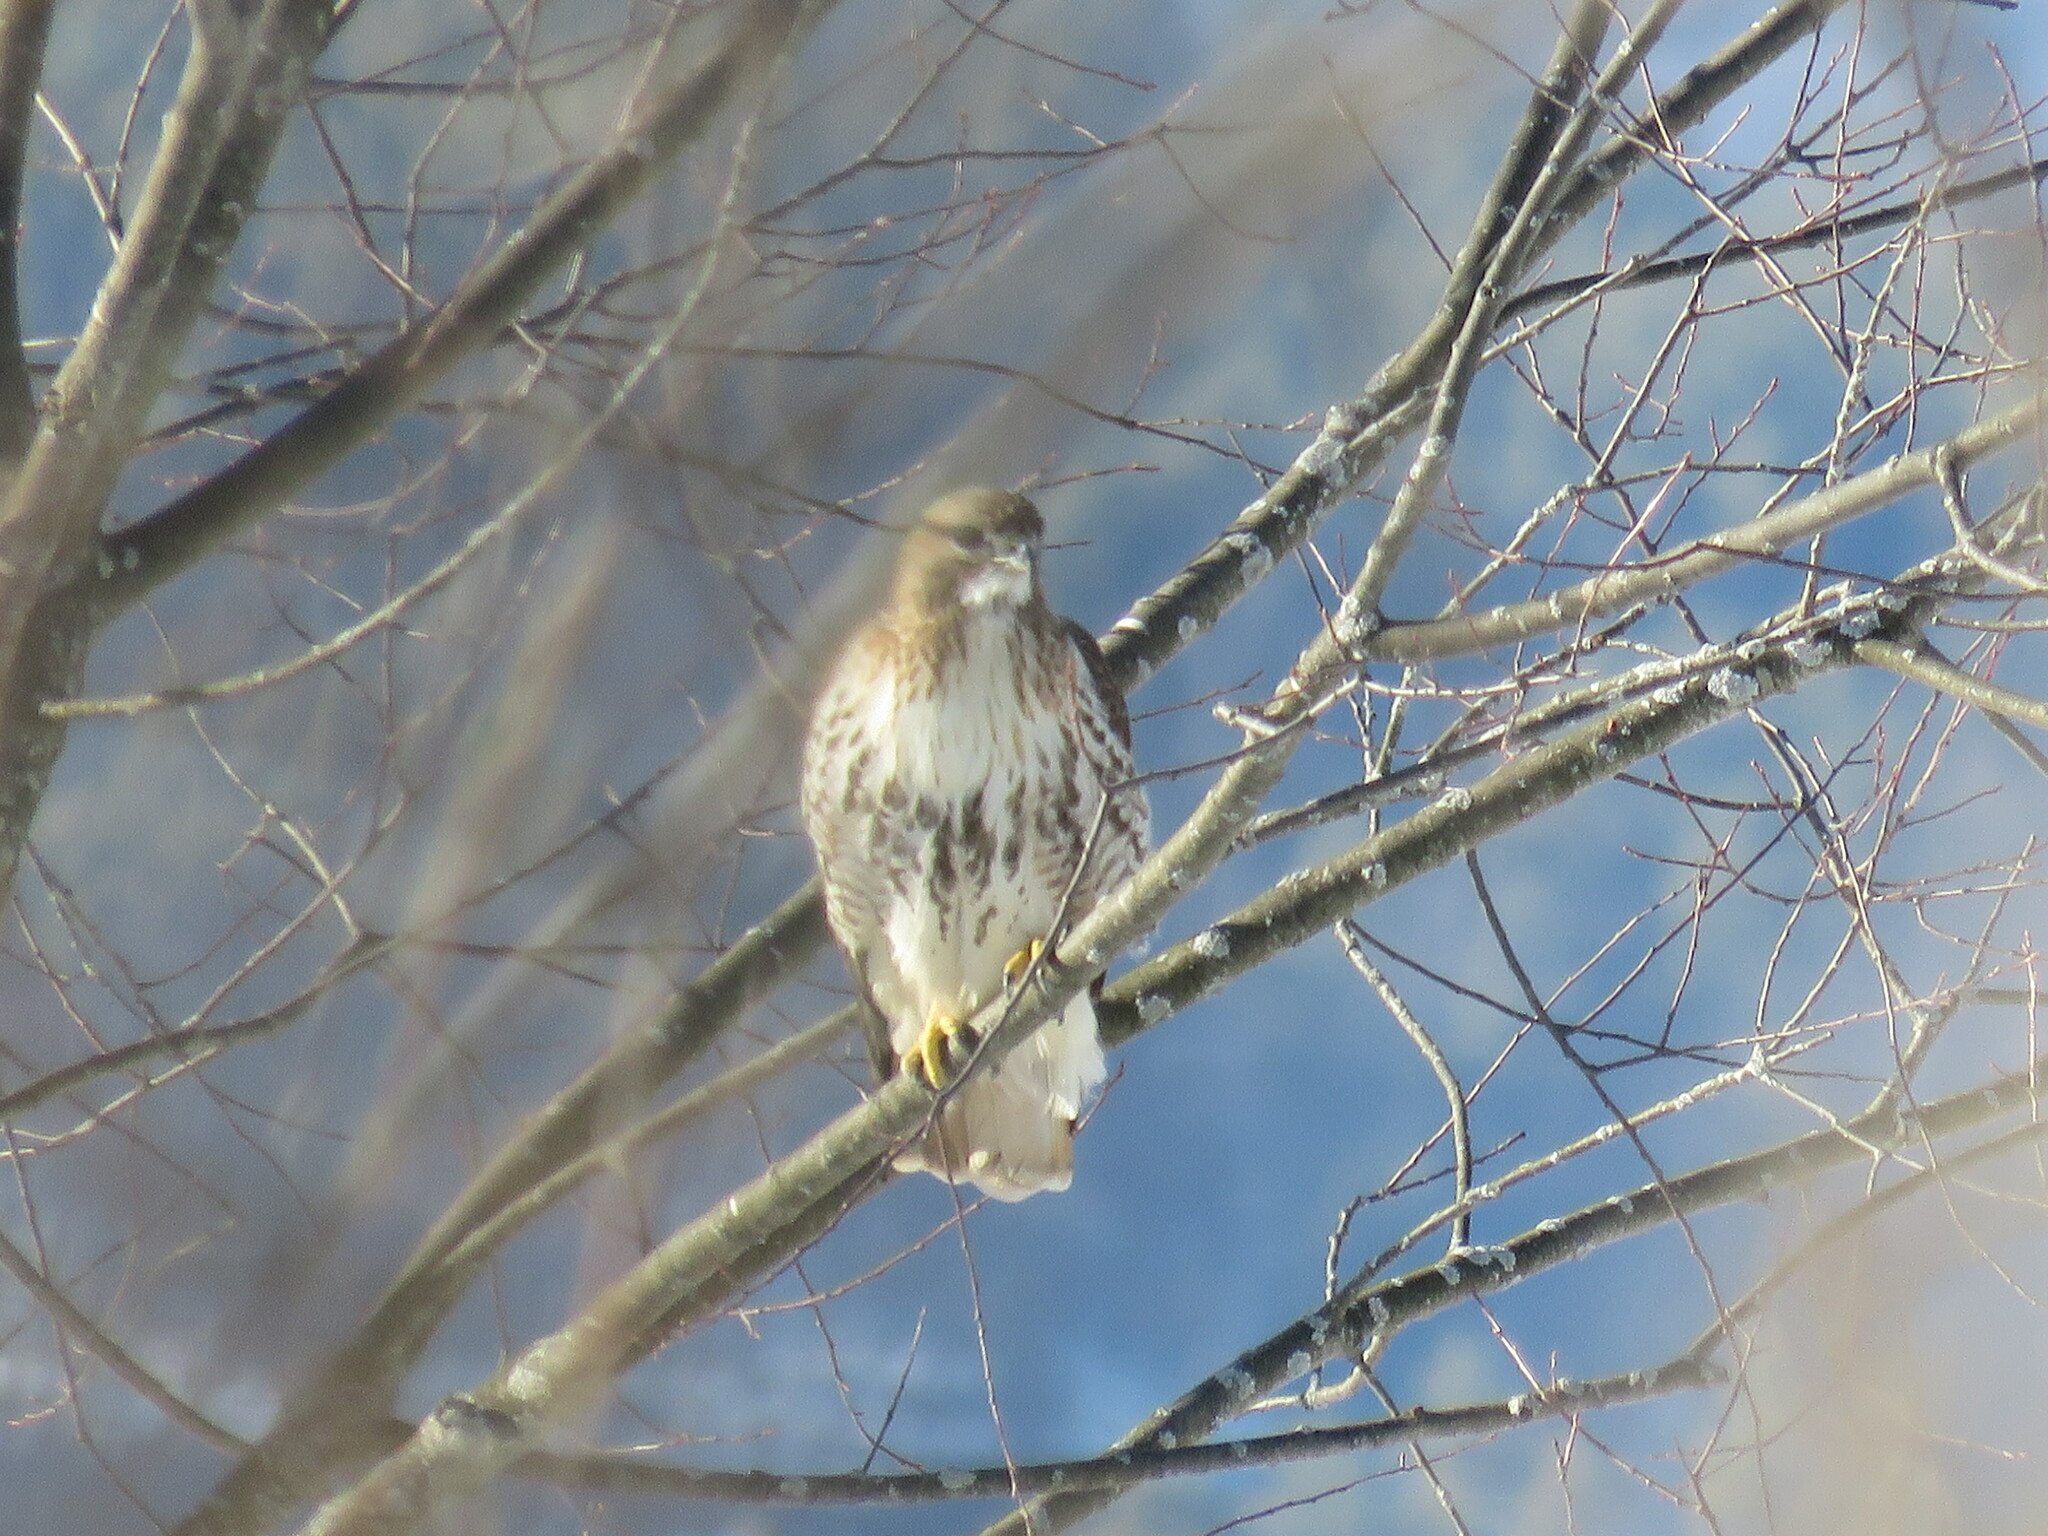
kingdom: Animalia
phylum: Chordata
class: Aves
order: Accipitriformes
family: Accipitridae
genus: Buteo
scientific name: Buteo jamaicensis
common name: Red-tailed hawk
